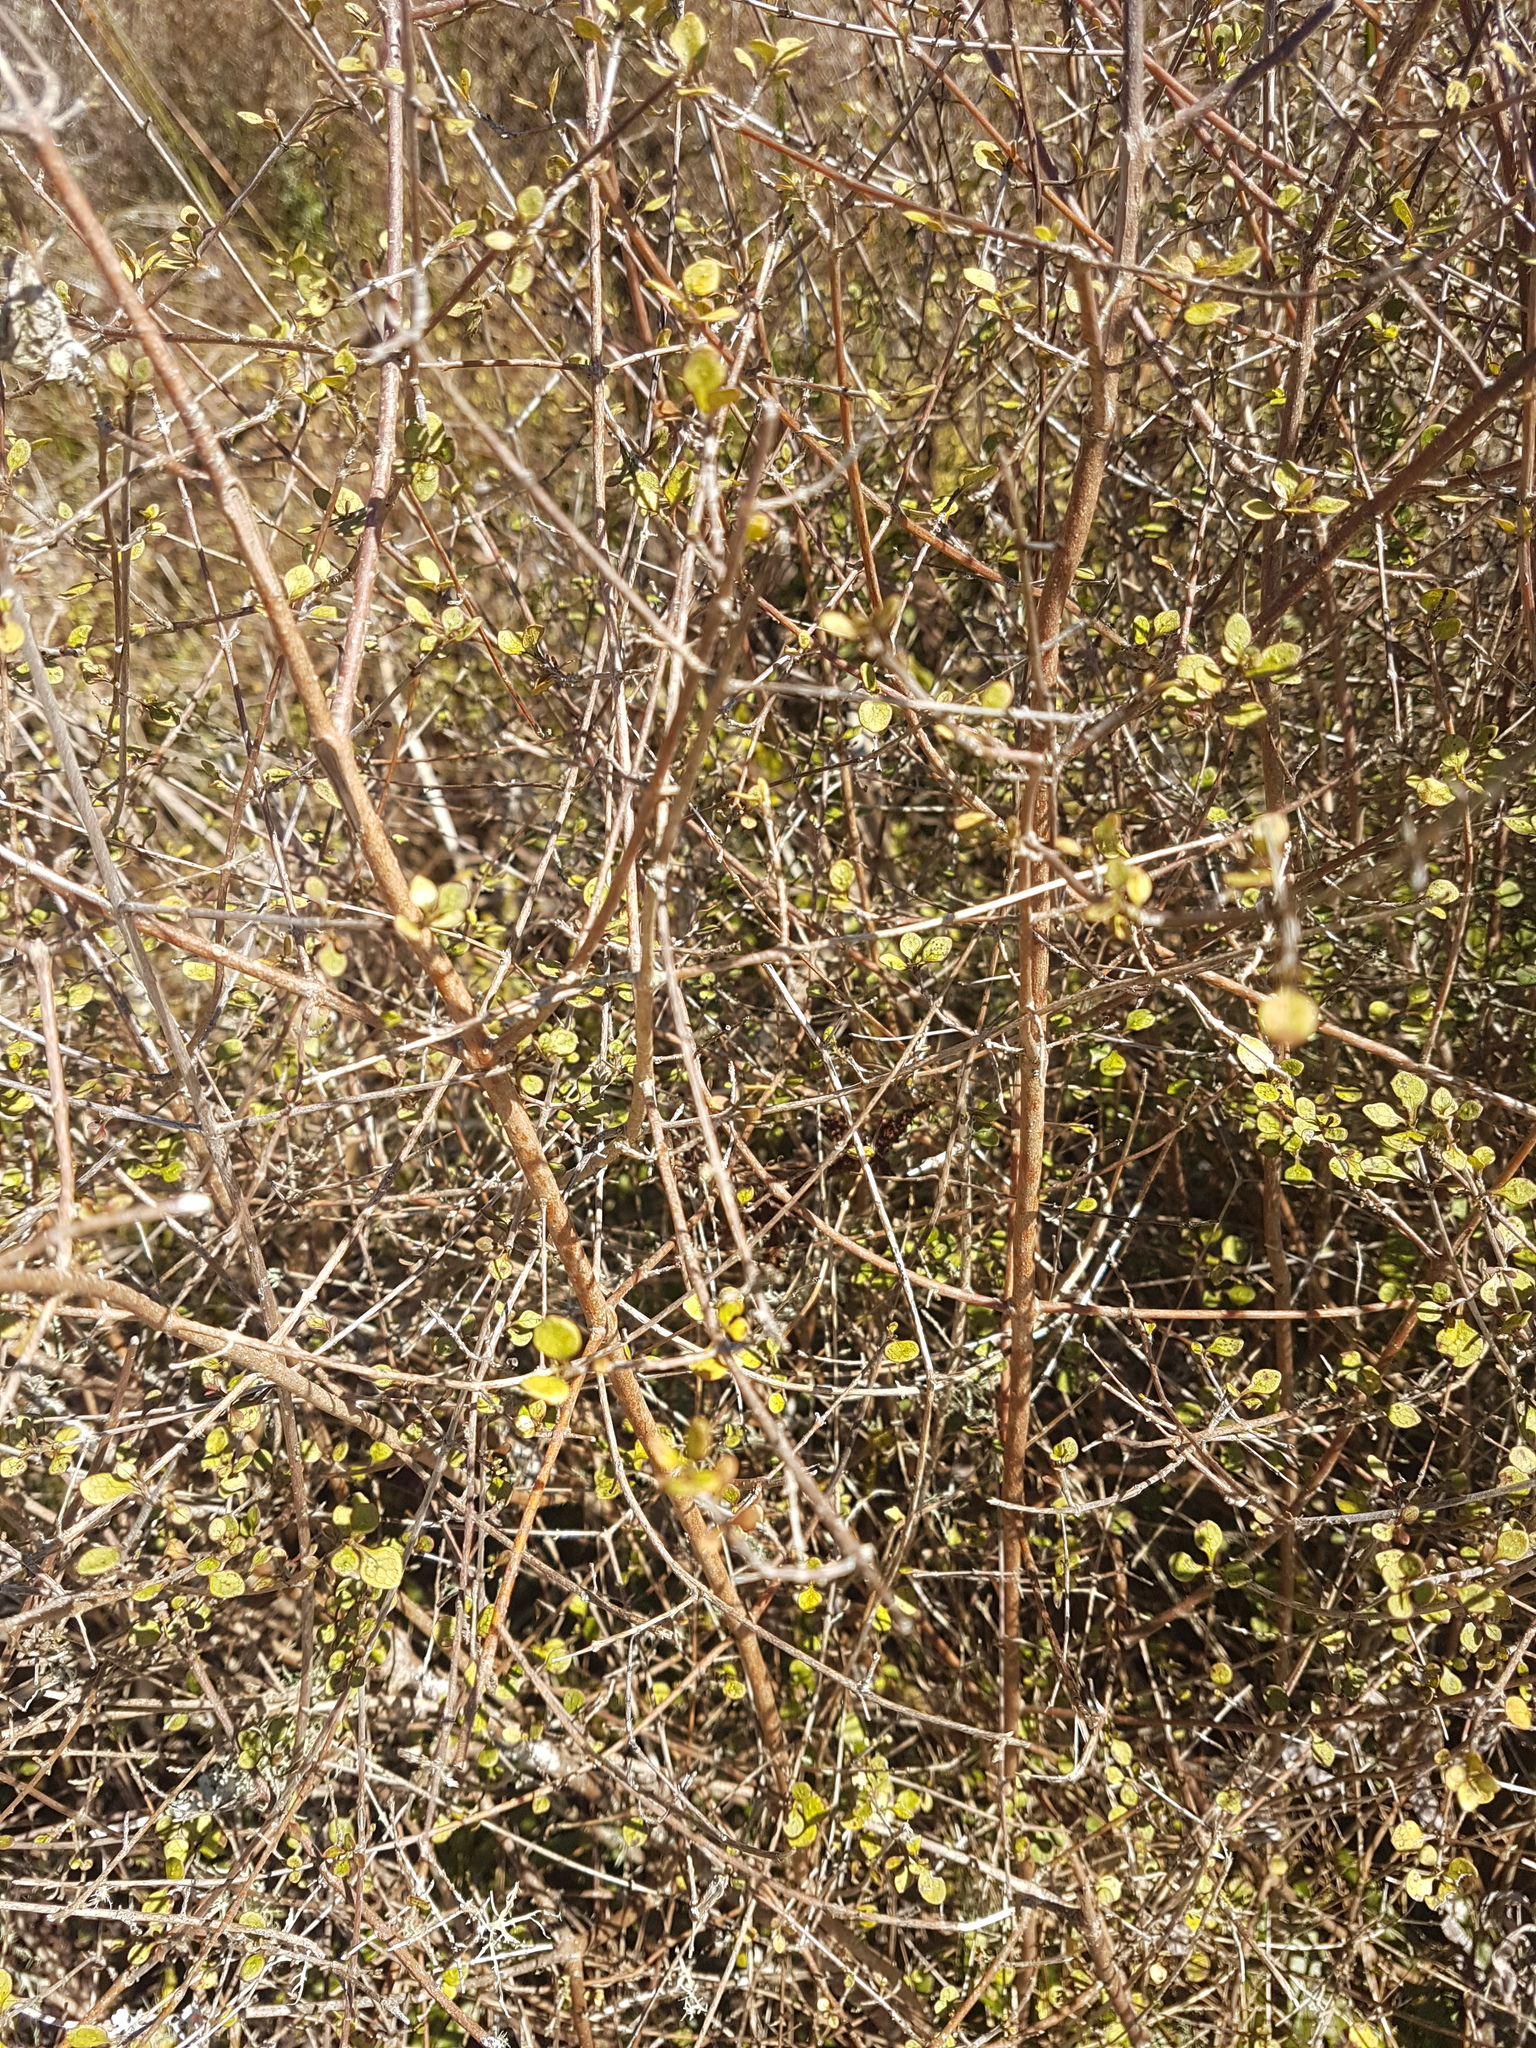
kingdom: Plantae
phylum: Tracheophyta
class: Magnoliopsida
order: Gentianales
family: Rubiaceae
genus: Coprosma
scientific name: Coprosma tenuicaulis
